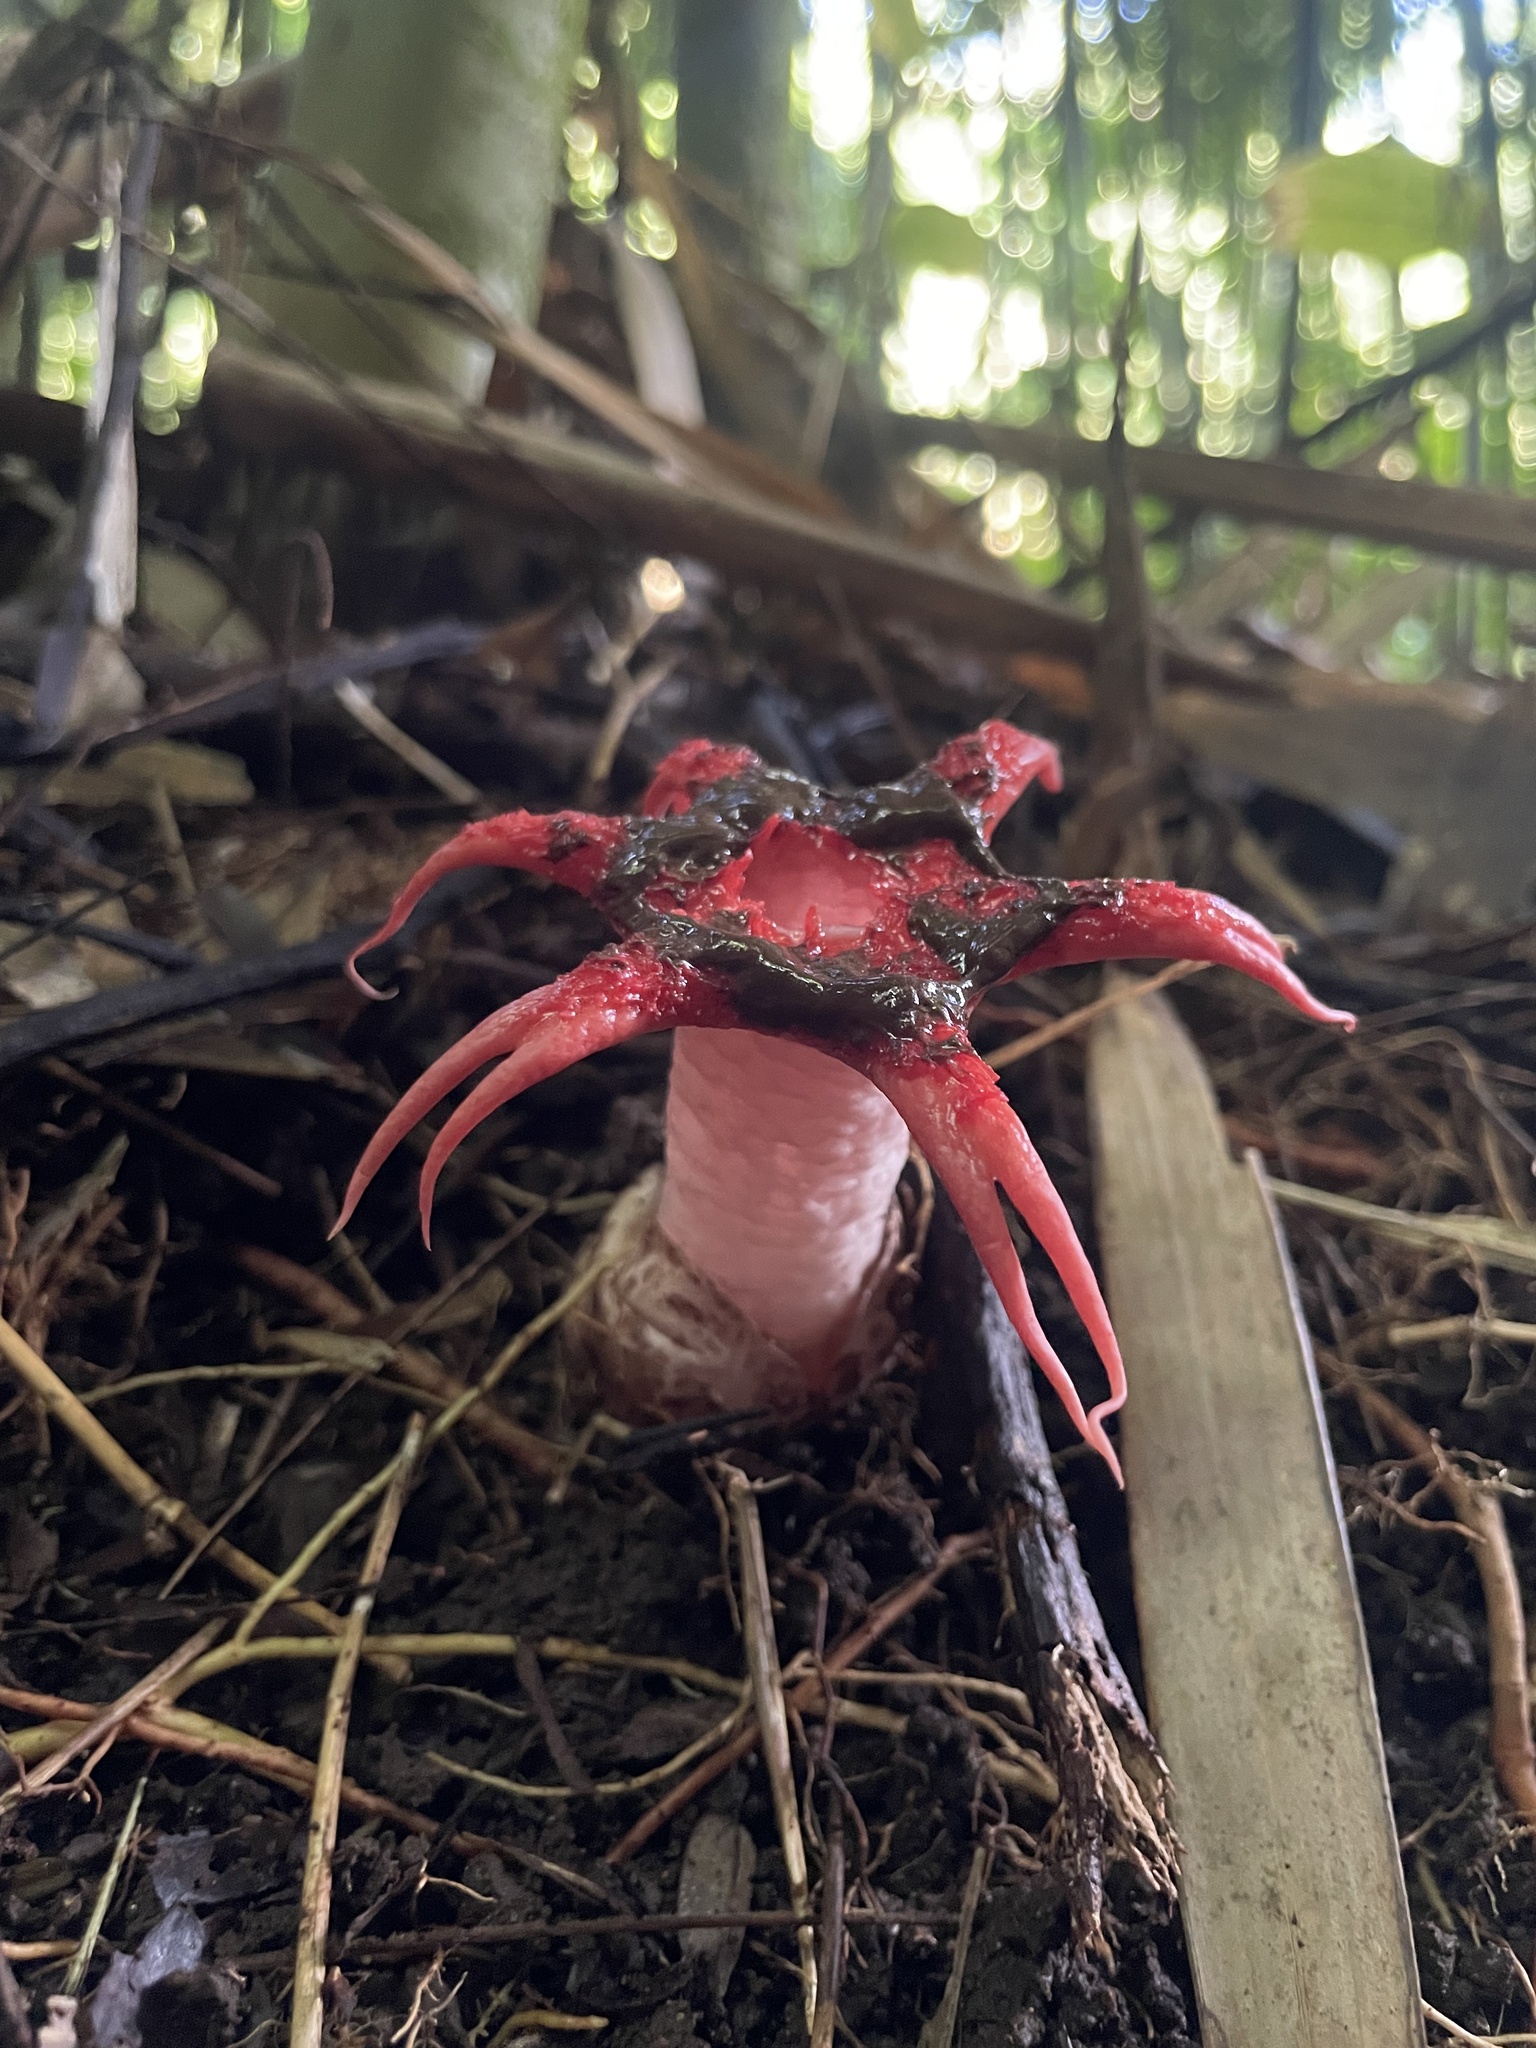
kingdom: Fungi
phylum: Basidiomycota
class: Agaricomycetes
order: Phallales
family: Phallaceae
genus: Aseroe
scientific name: Aseroe rubra
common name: Starfish fungus
